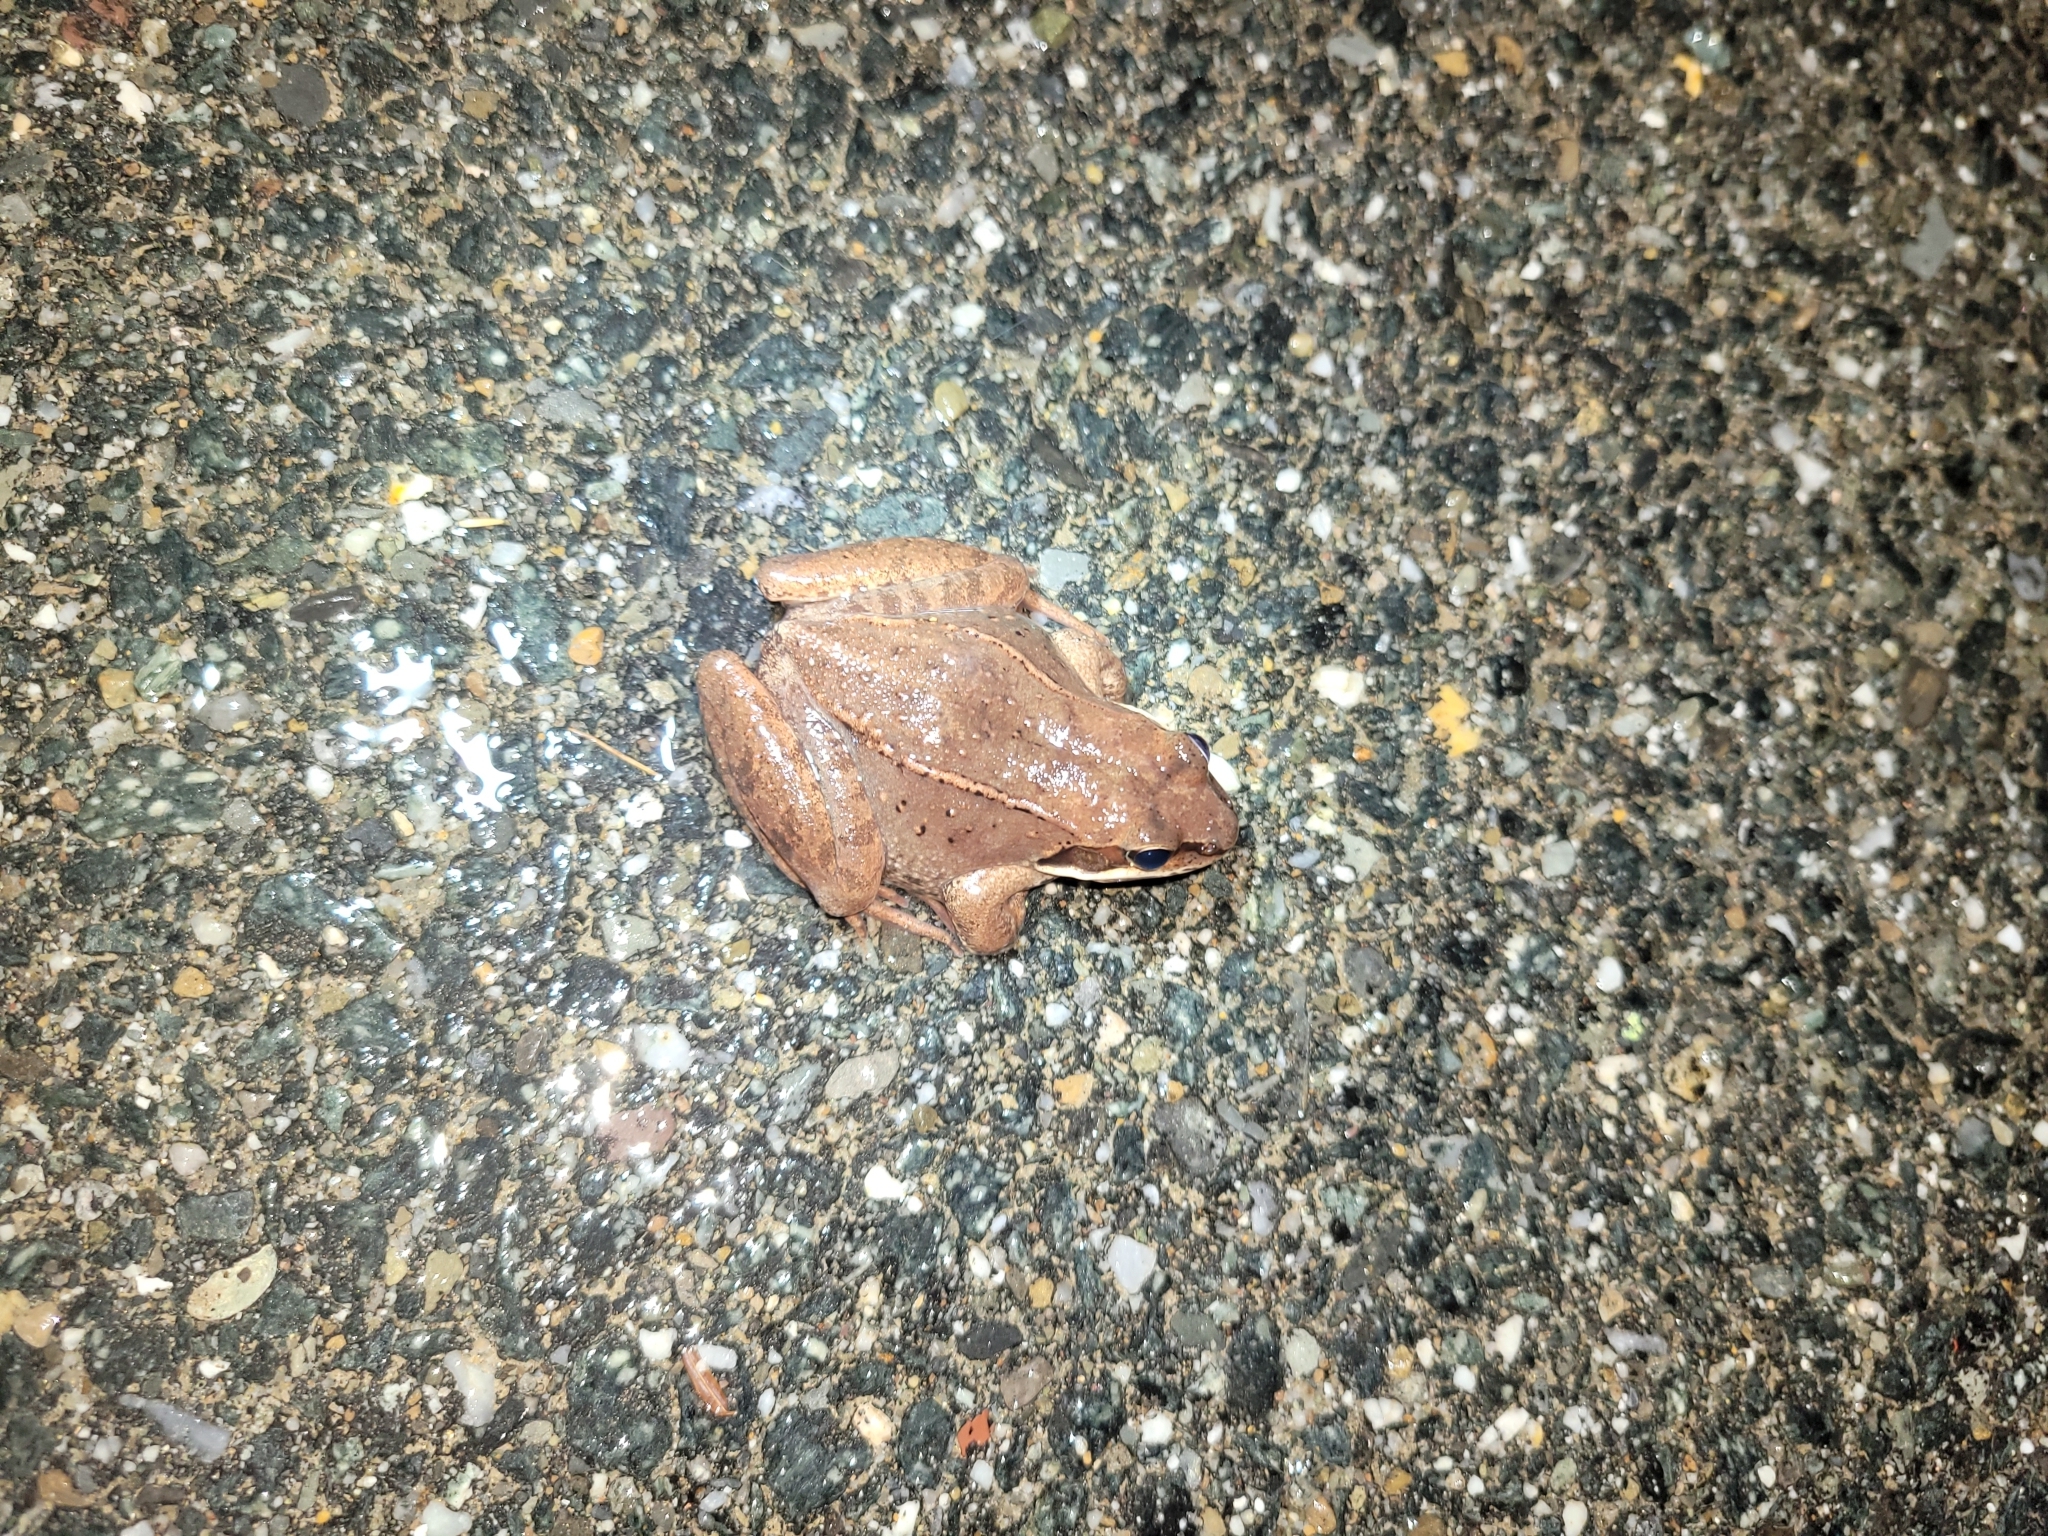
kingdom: Animalia
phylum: Chordata
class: Amphibia
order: Anura
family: Ranidae
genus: Lithobates
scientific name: Lithobates sylvaticus
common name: Wood frog
